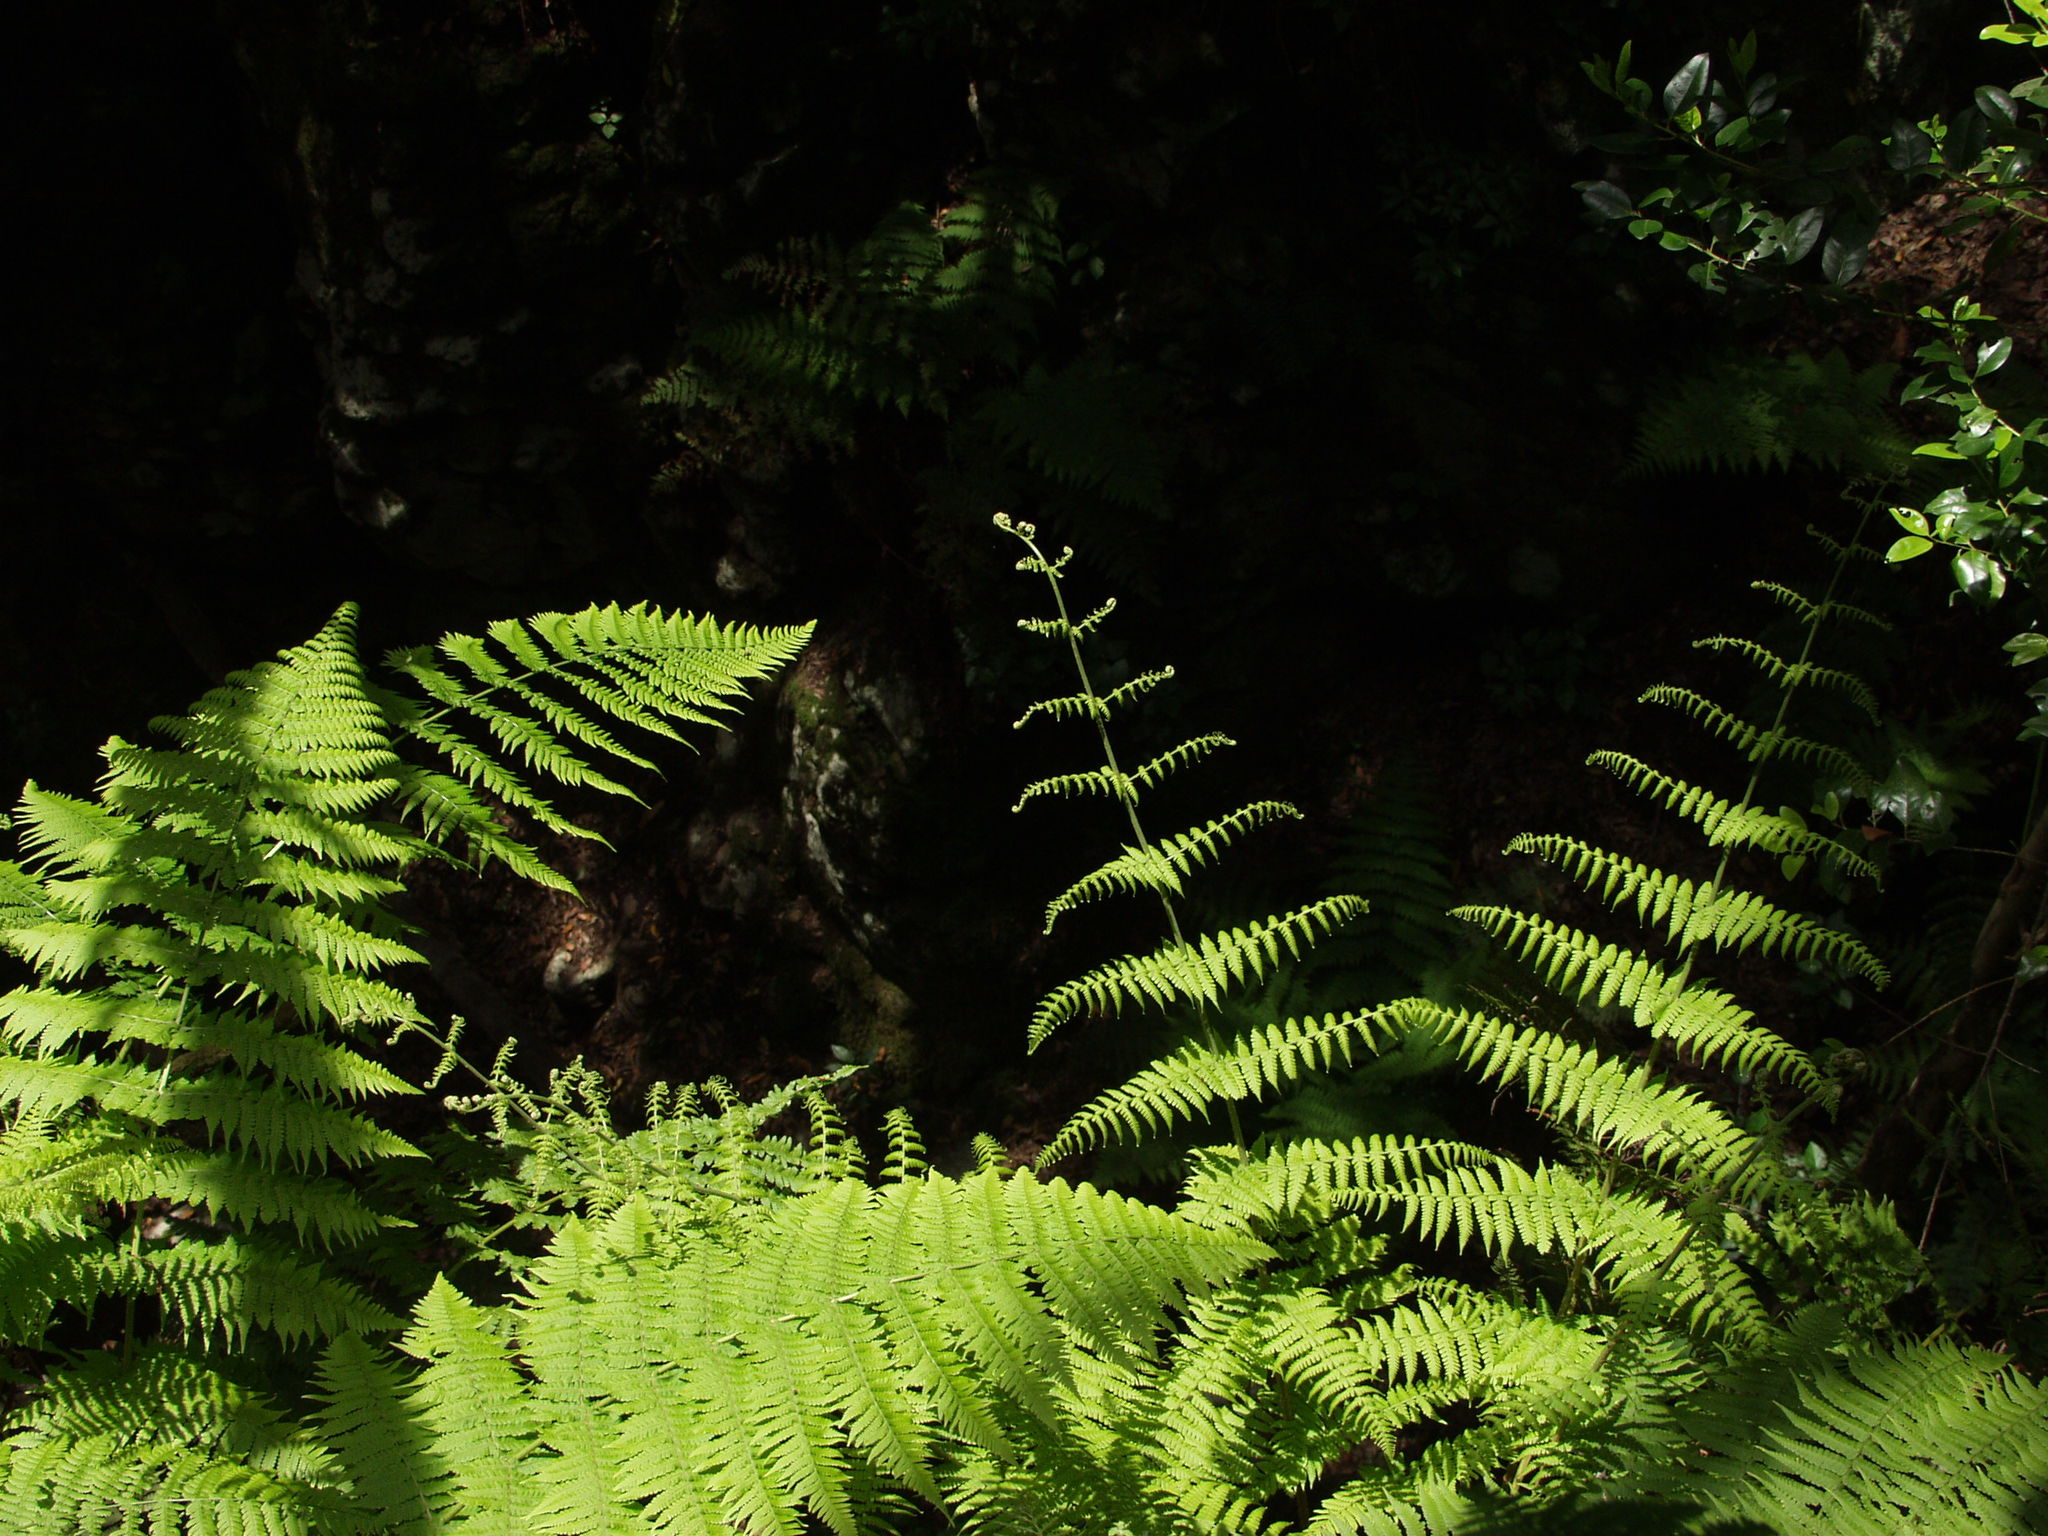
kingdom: Plantae
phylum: Tracheophyta
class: Polypodiopsida
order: Polypodiales
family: Dennstaedtiaceae
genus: Pteridium
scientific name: Pteridium aquilinum
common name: Bracken
